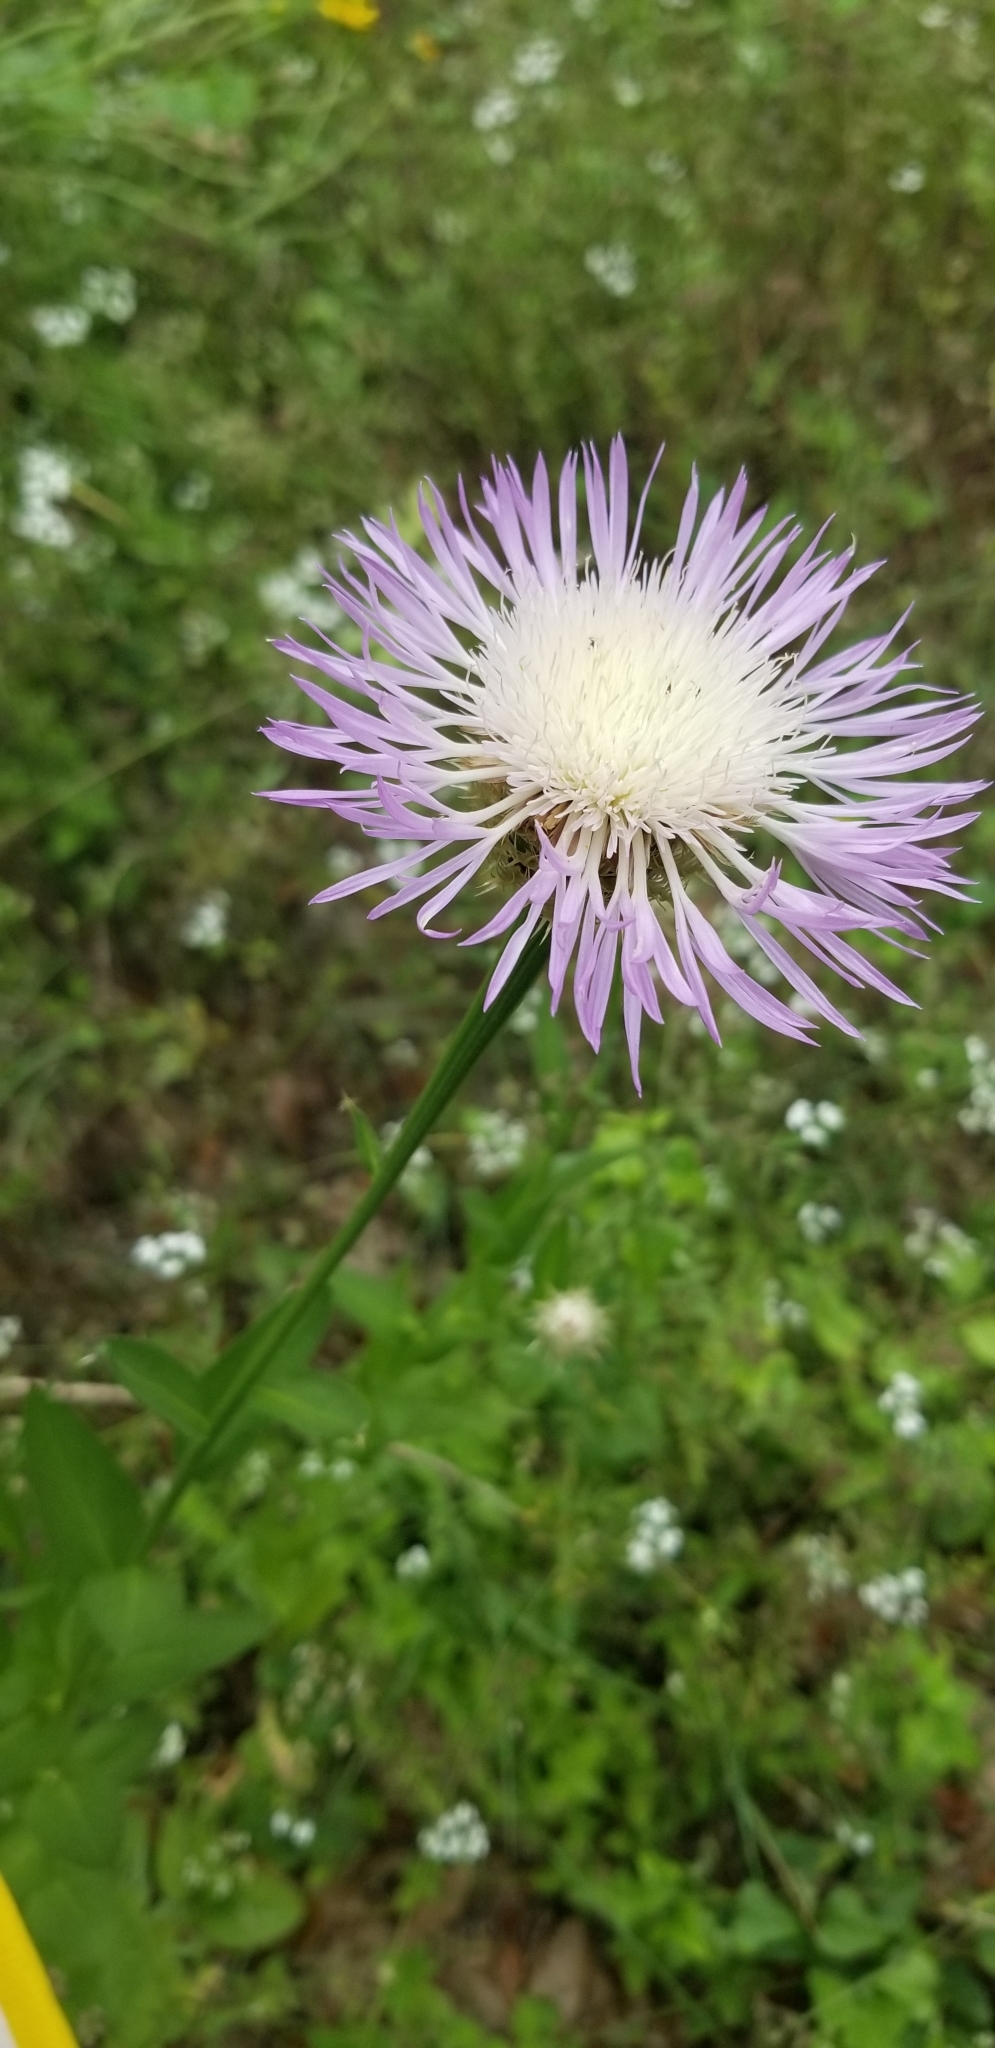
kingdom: Plantae
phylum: Tracheophyta
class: Magnoliopsida
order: Asterales
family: Asteraceae
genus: Plectocephalus
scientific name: Plectocephalus americanus
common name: American basket-flower
